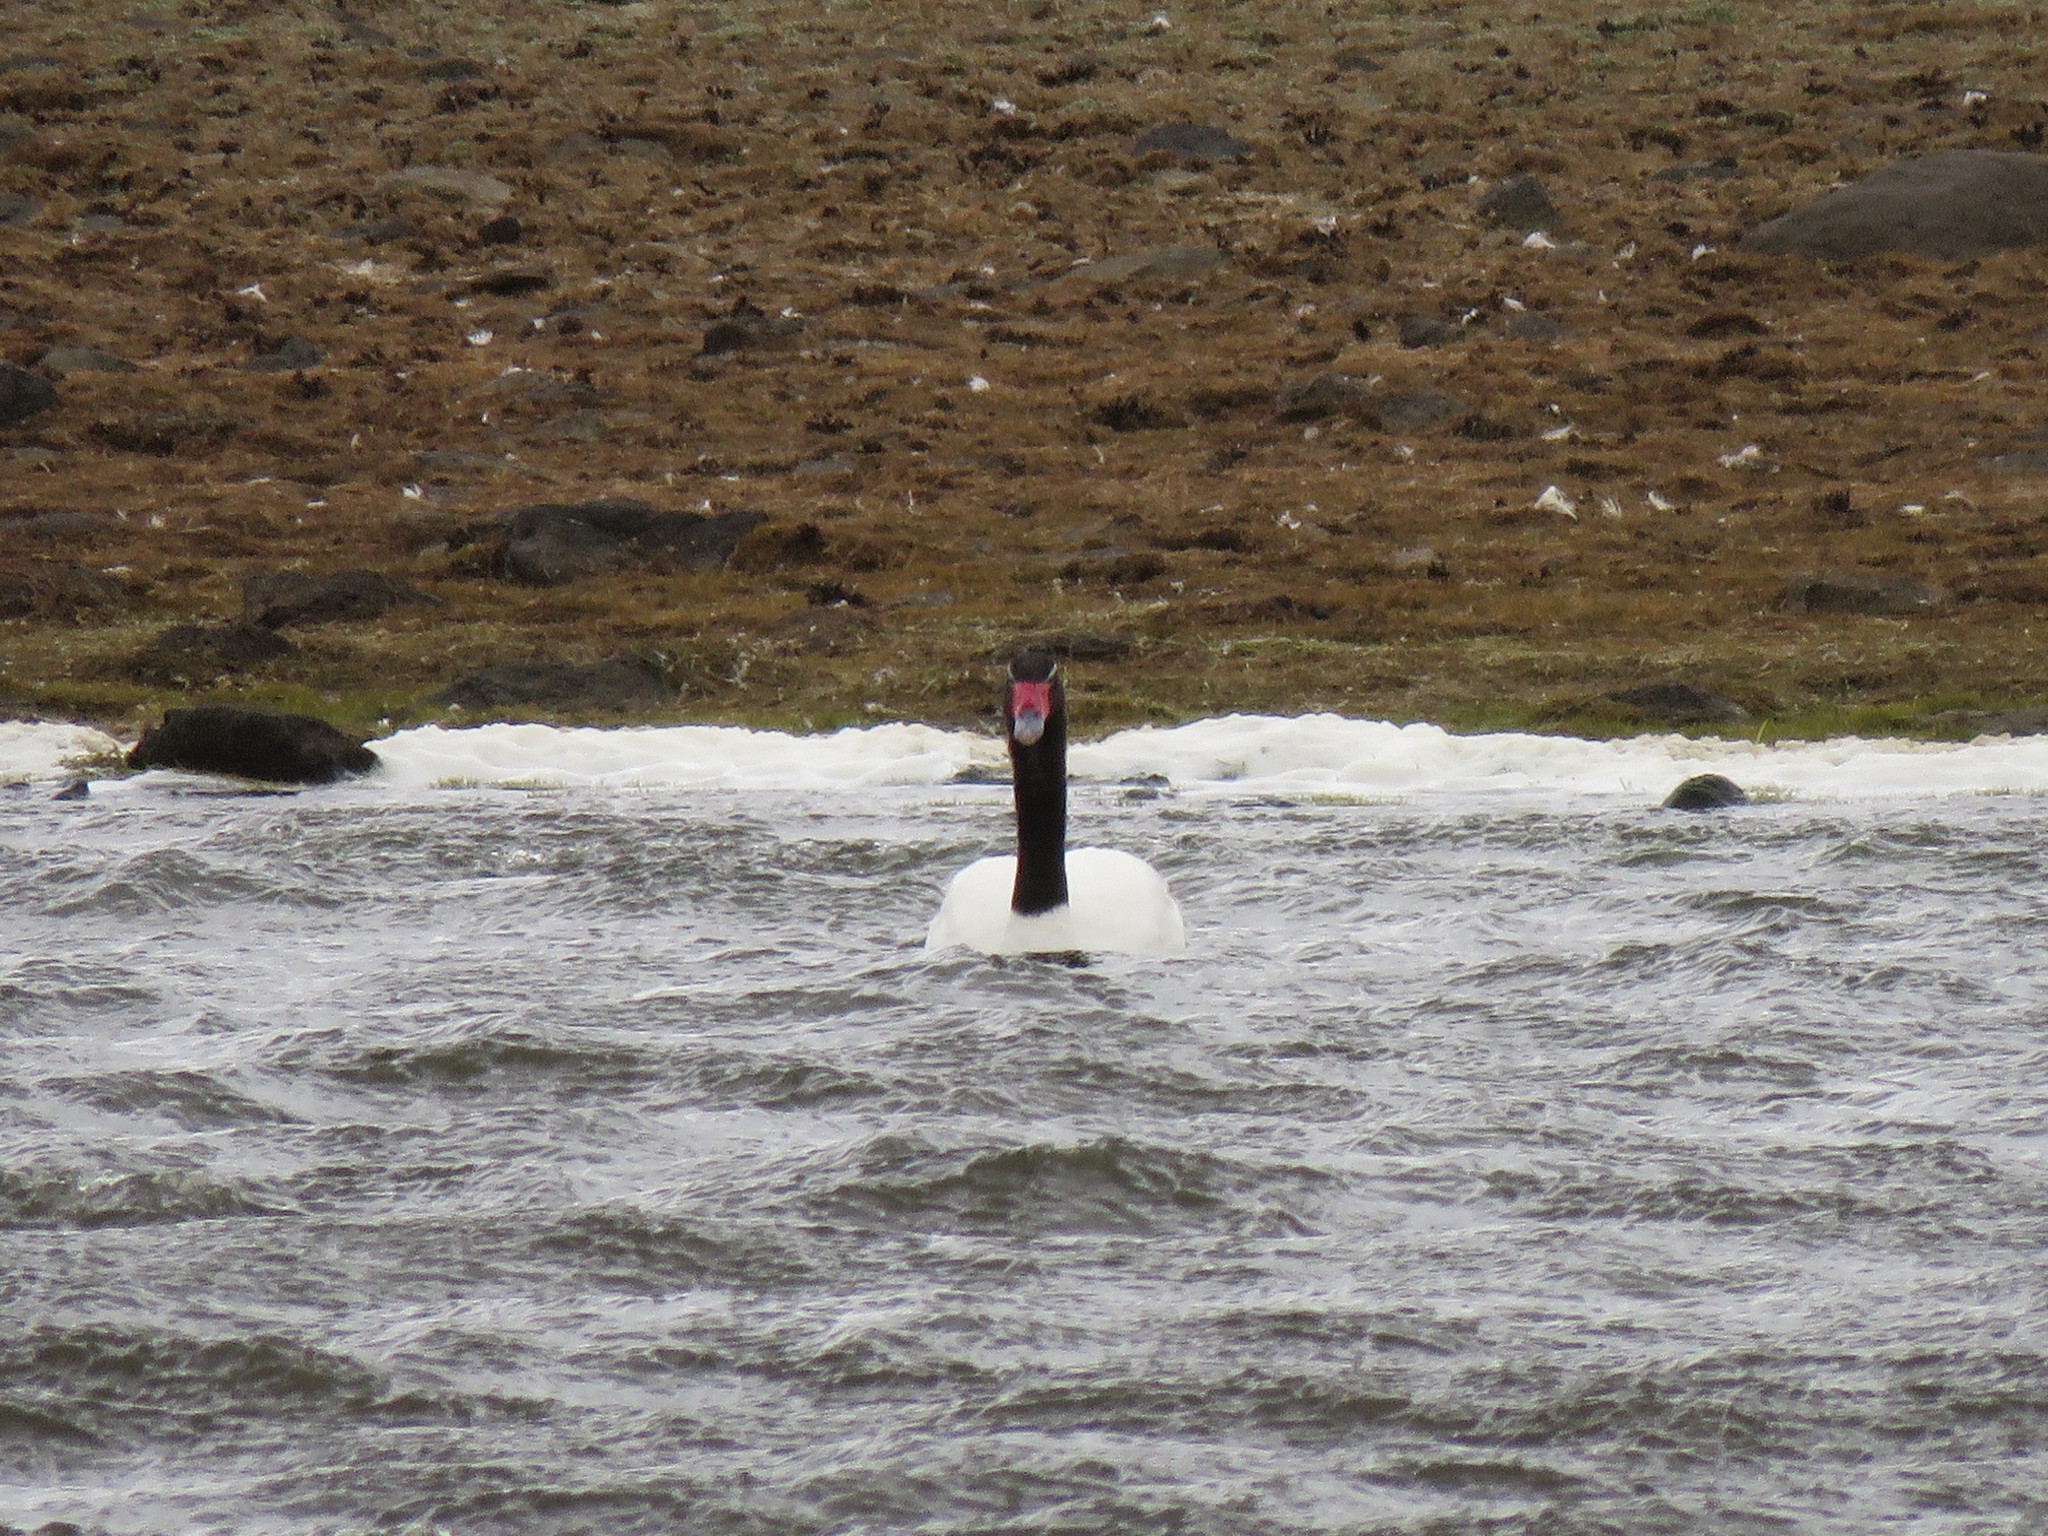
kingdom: Animalia
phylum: Chordata
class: Aves
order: Anseriformes
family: Anatidae
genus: Cygnus
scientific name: Cygnus melancoryphus
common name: Black-necked swan
